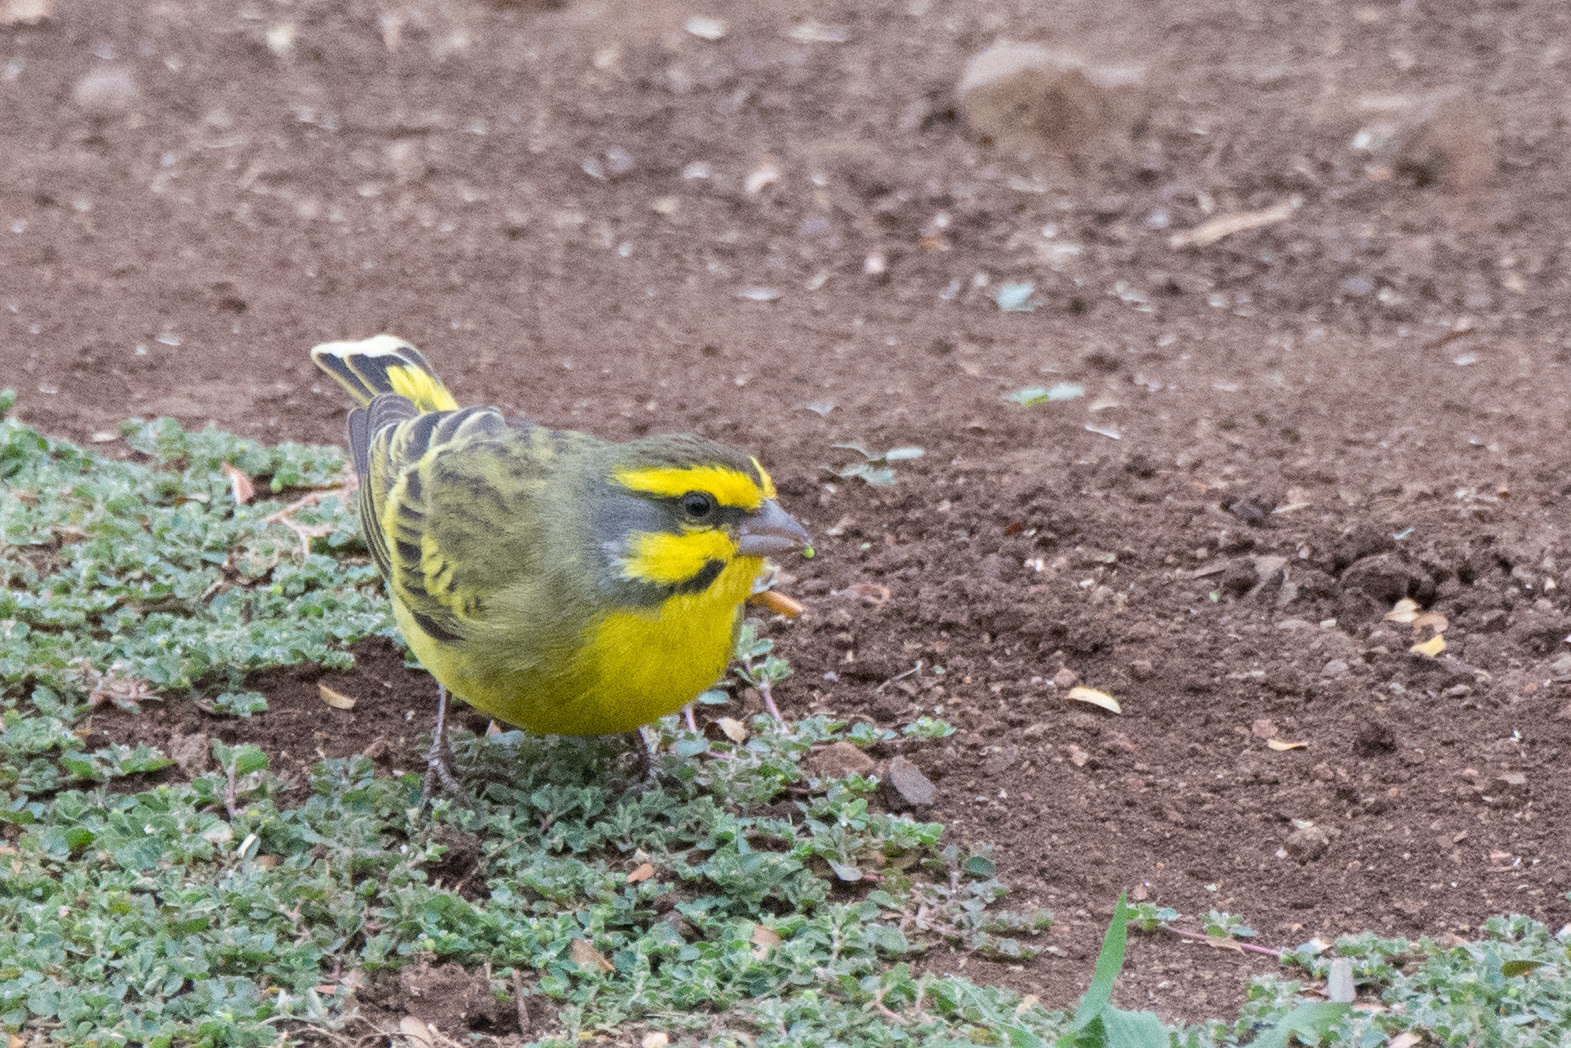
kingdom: Animalia
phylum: Chordata
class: Aves
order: Passeriformes
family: Fringillidae
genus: Crithagra
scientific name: Crithagra mozambica
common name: Yellow-fronted canary
